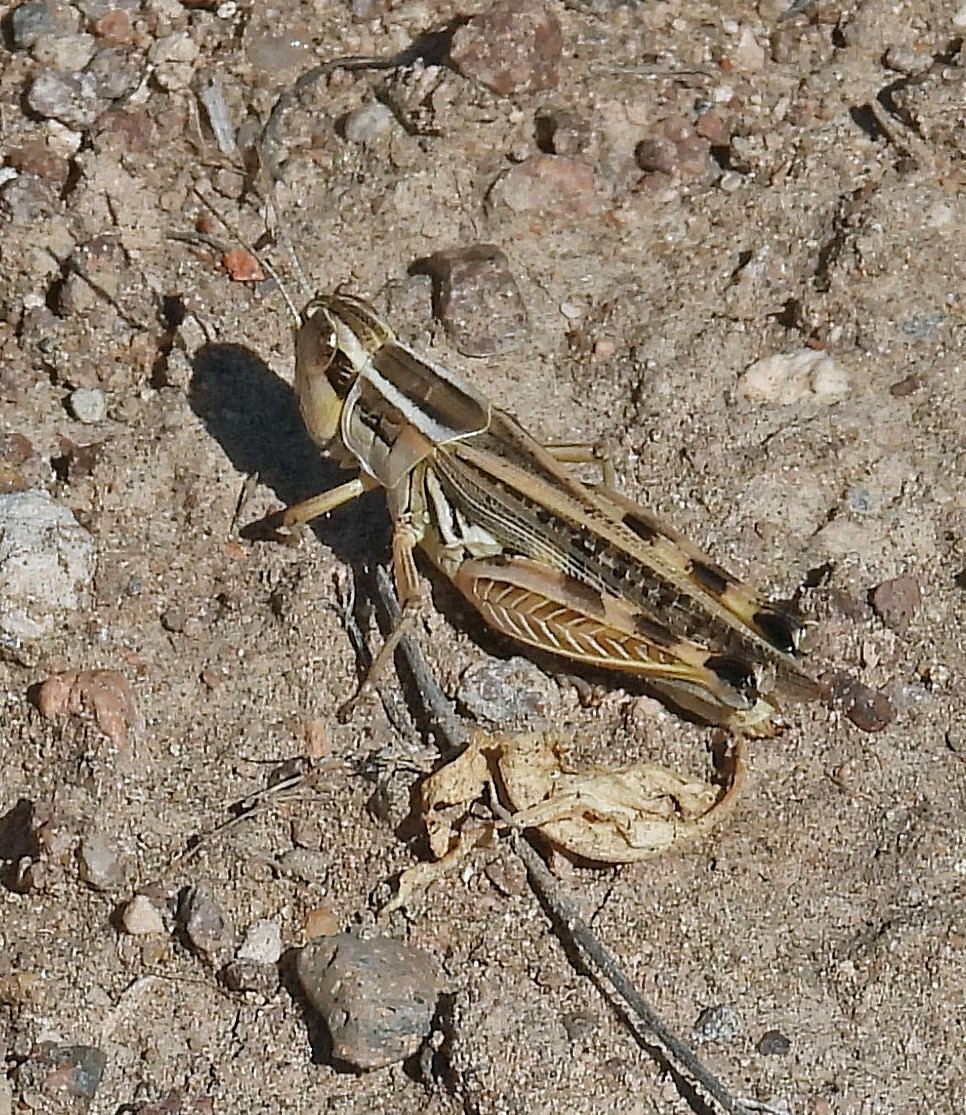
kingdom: Animalia
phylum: Arthropoda
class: Insecta
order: Orthoptera
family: Acrididae
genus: Dichroplus
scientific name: Dichroplus pratensis
